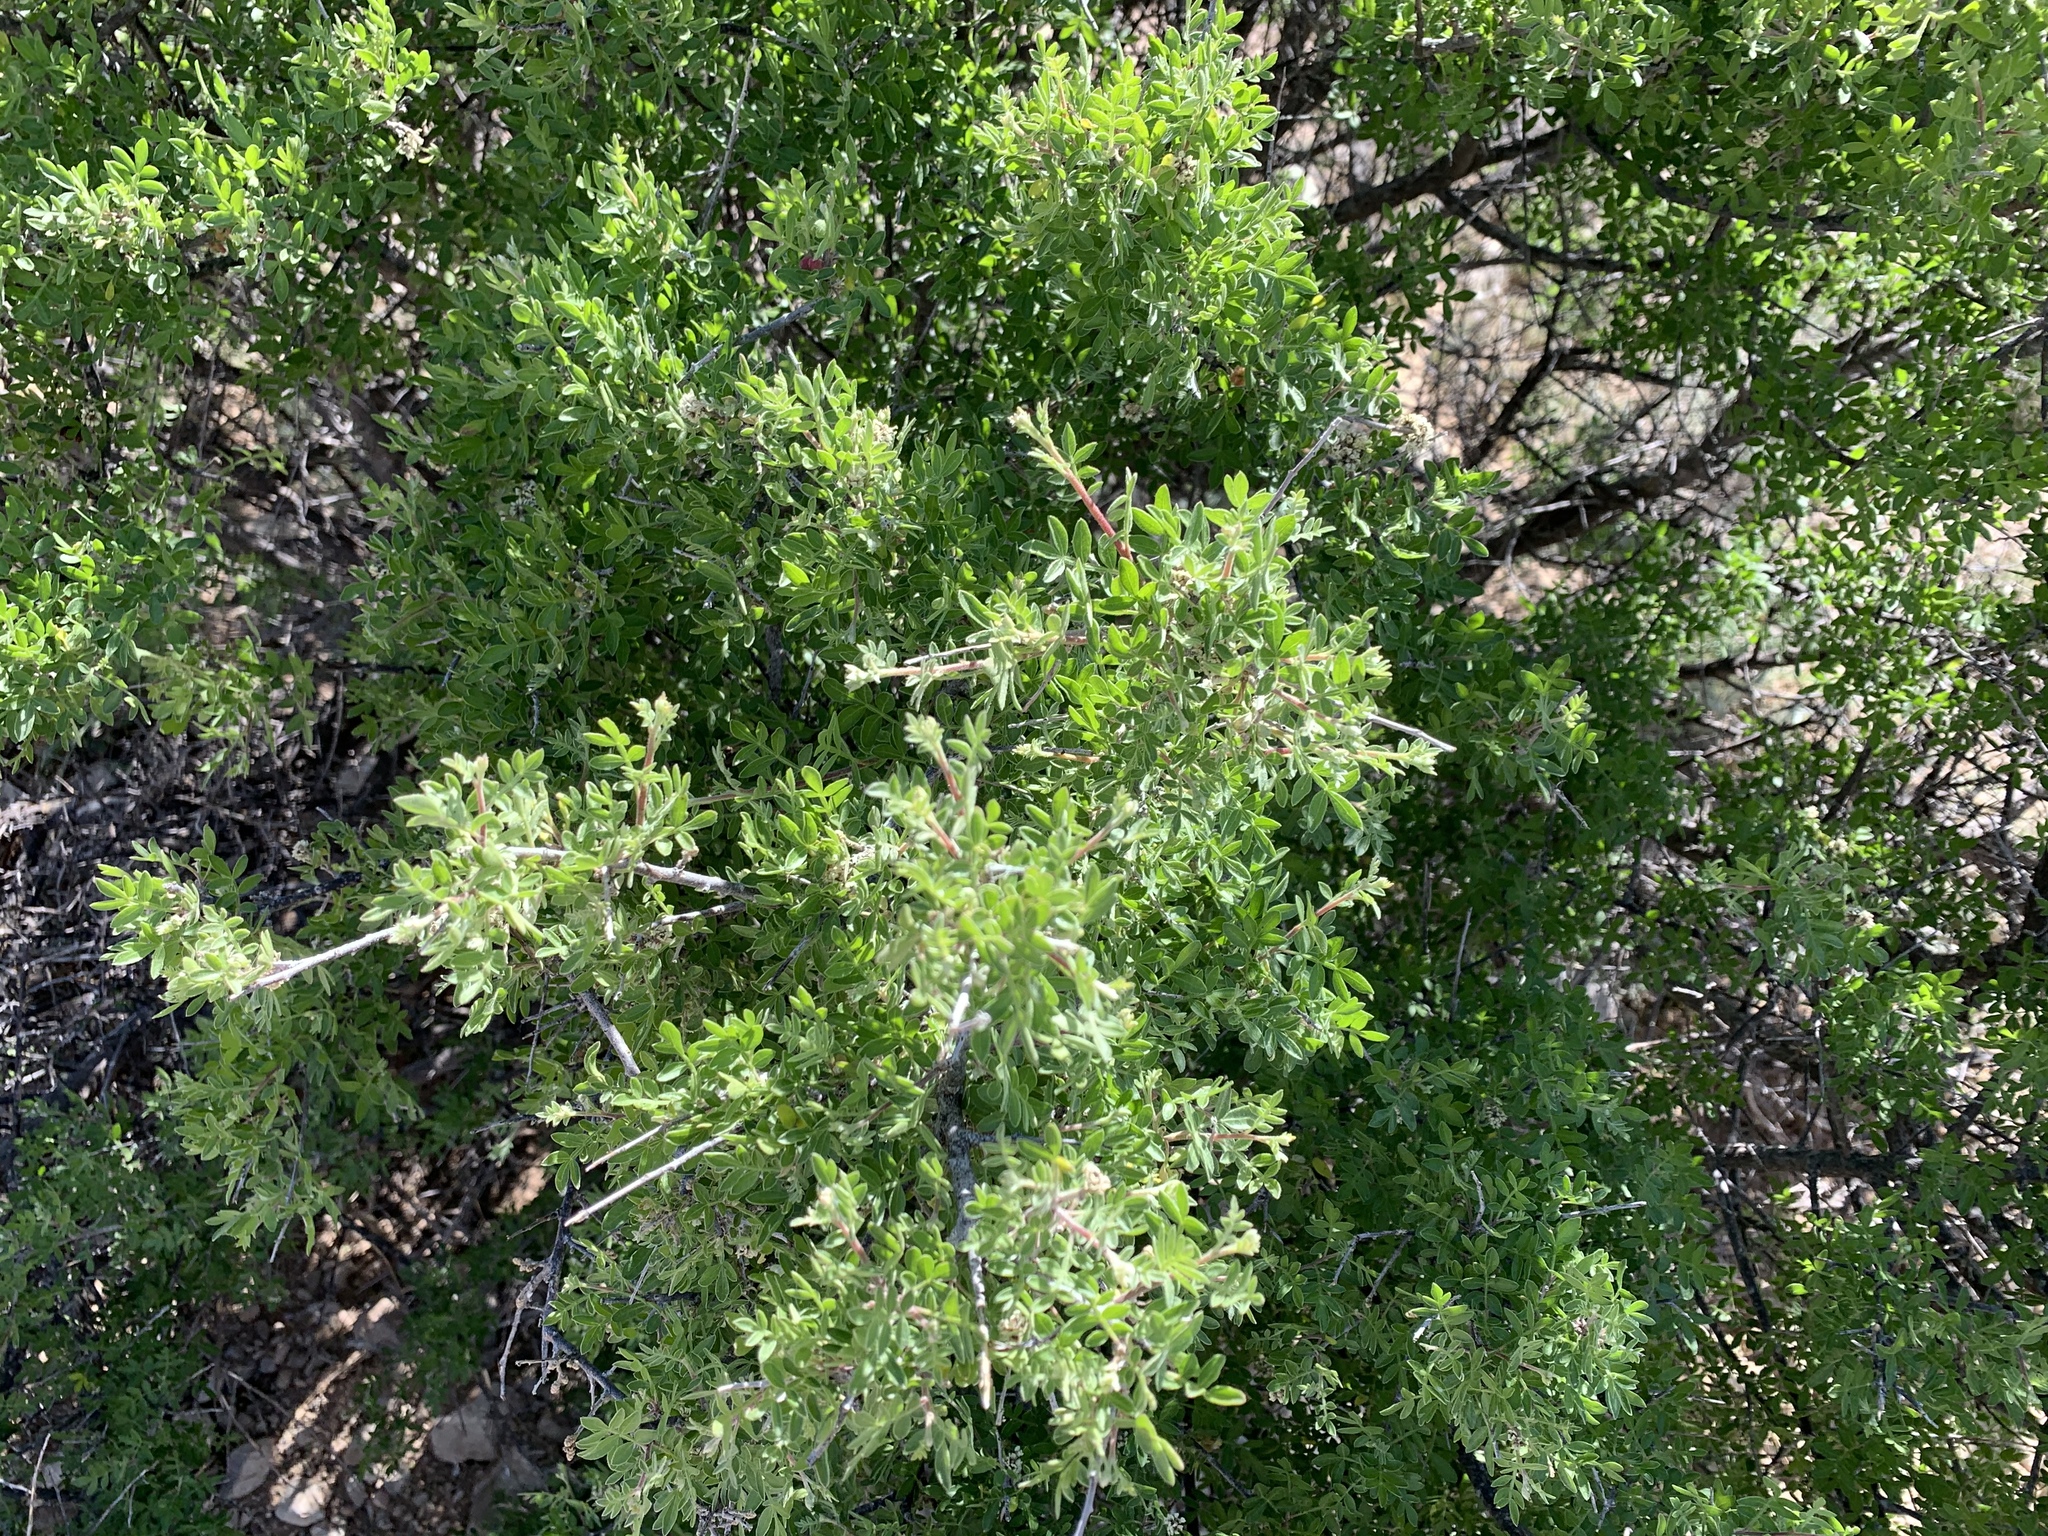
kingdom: Plantae
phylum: Tracheophyta
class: Magnoliopsida
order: Sapindales
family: Anacardiaceae
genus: Rhus
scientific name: Rhus microphylla
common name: Desert sumac
